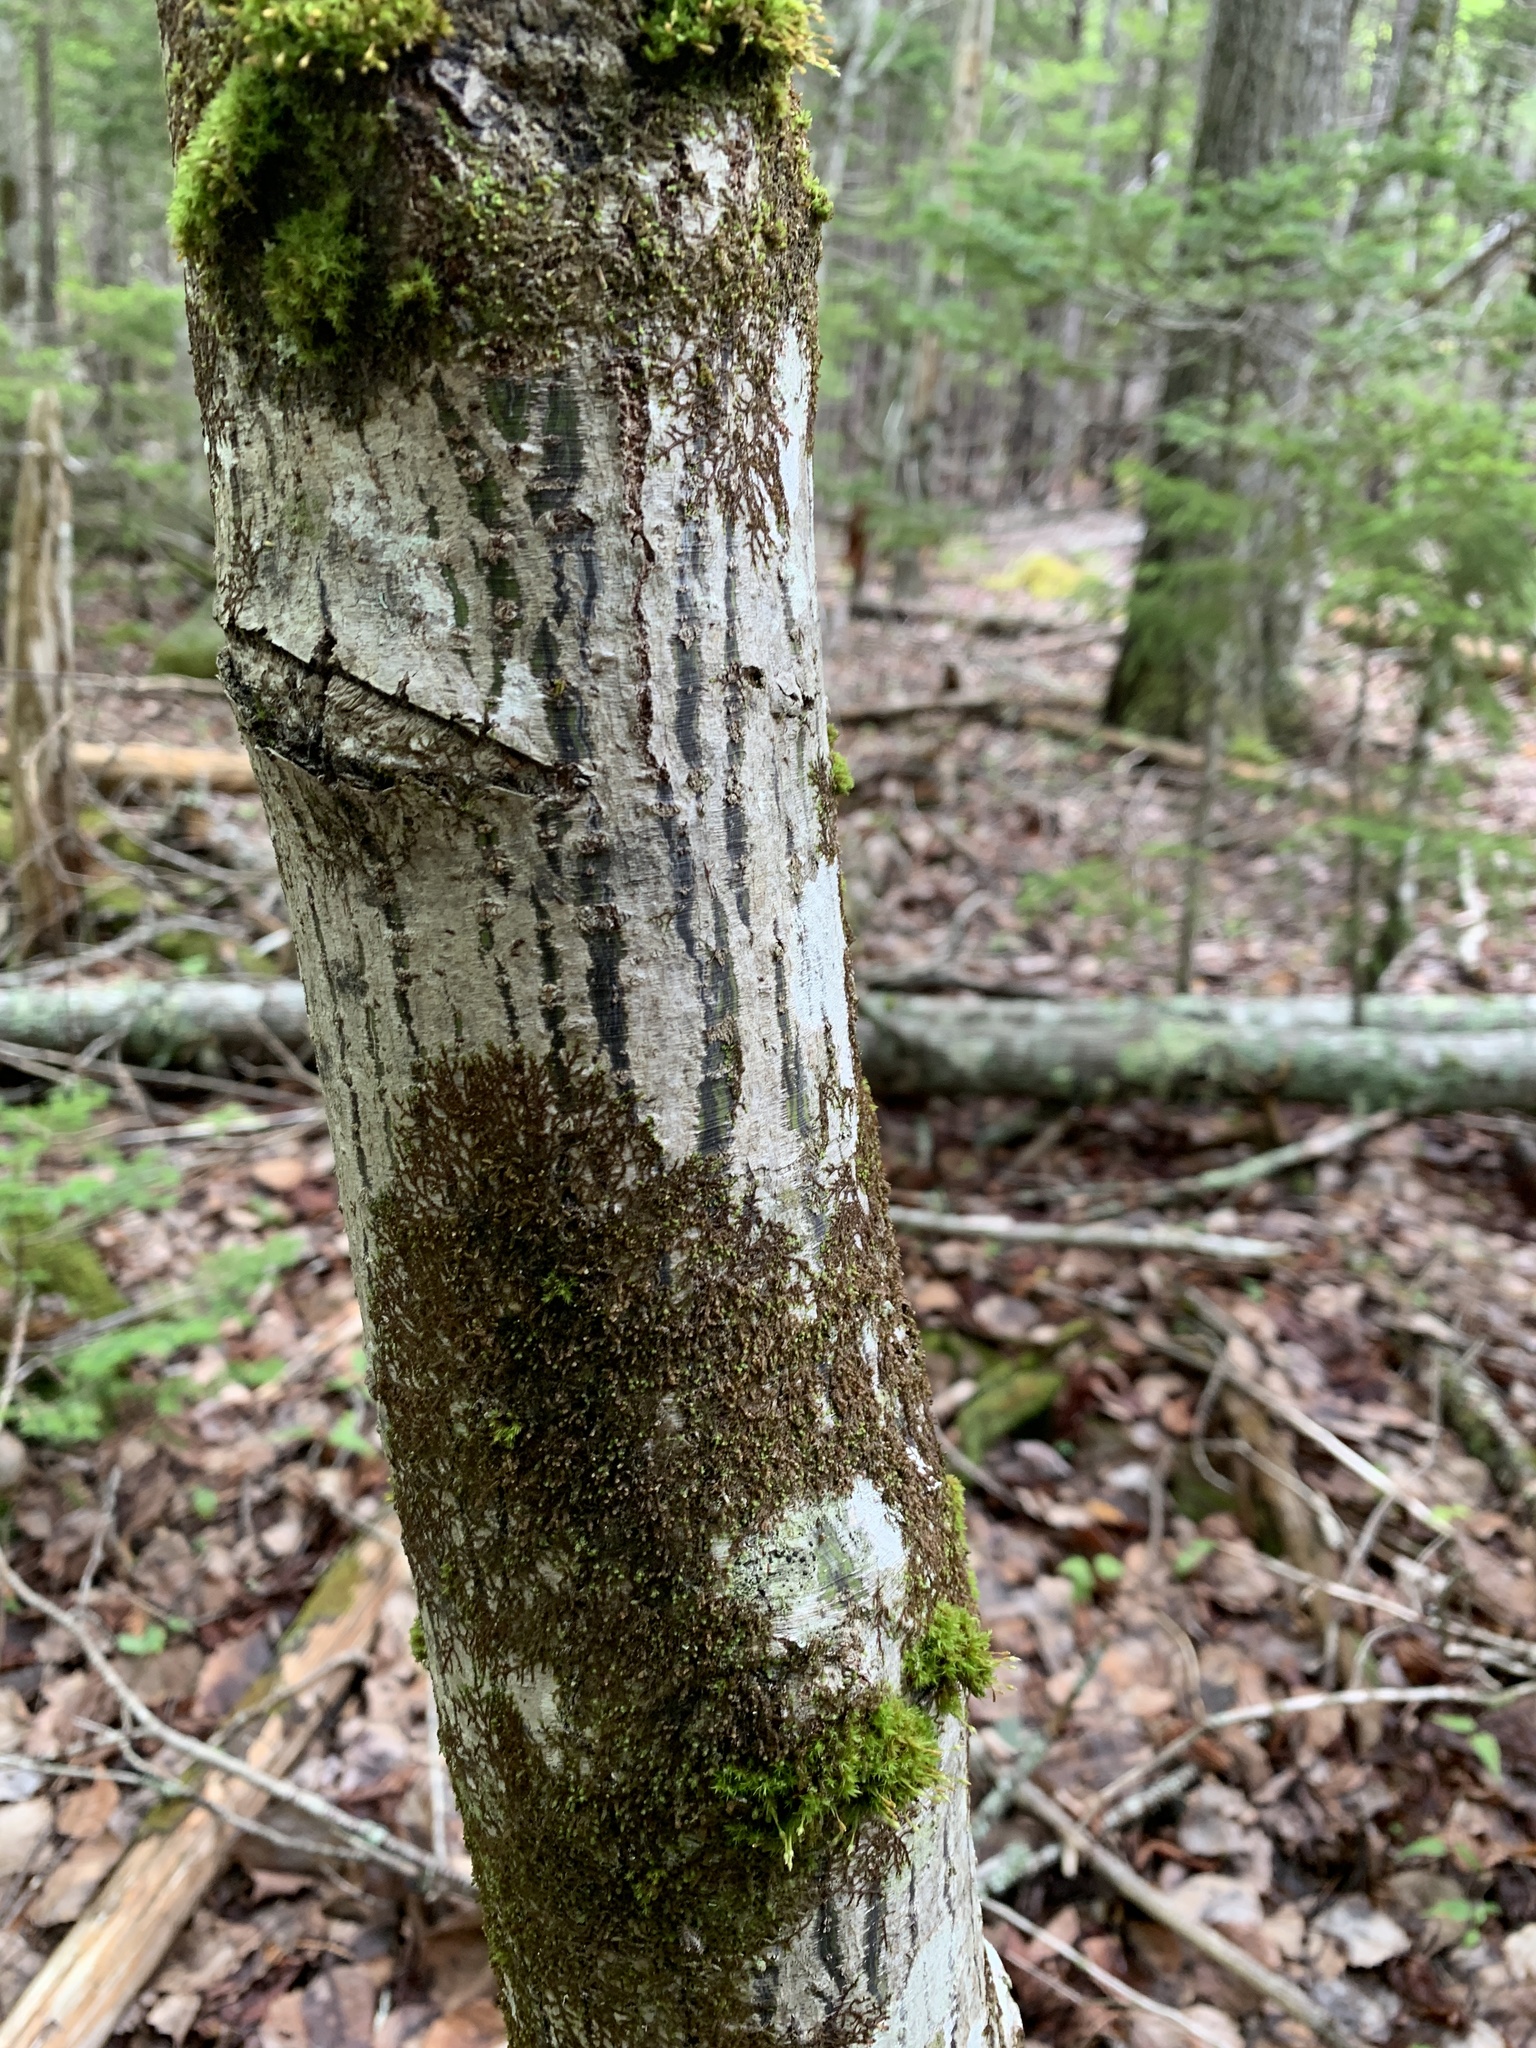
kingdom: Plantae
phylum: Tracheophyta
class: Magnoliopsida
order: Sapindales
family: Sapindaceae
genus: Acer
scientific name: Acer pensylvanicum
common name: Moosewood
